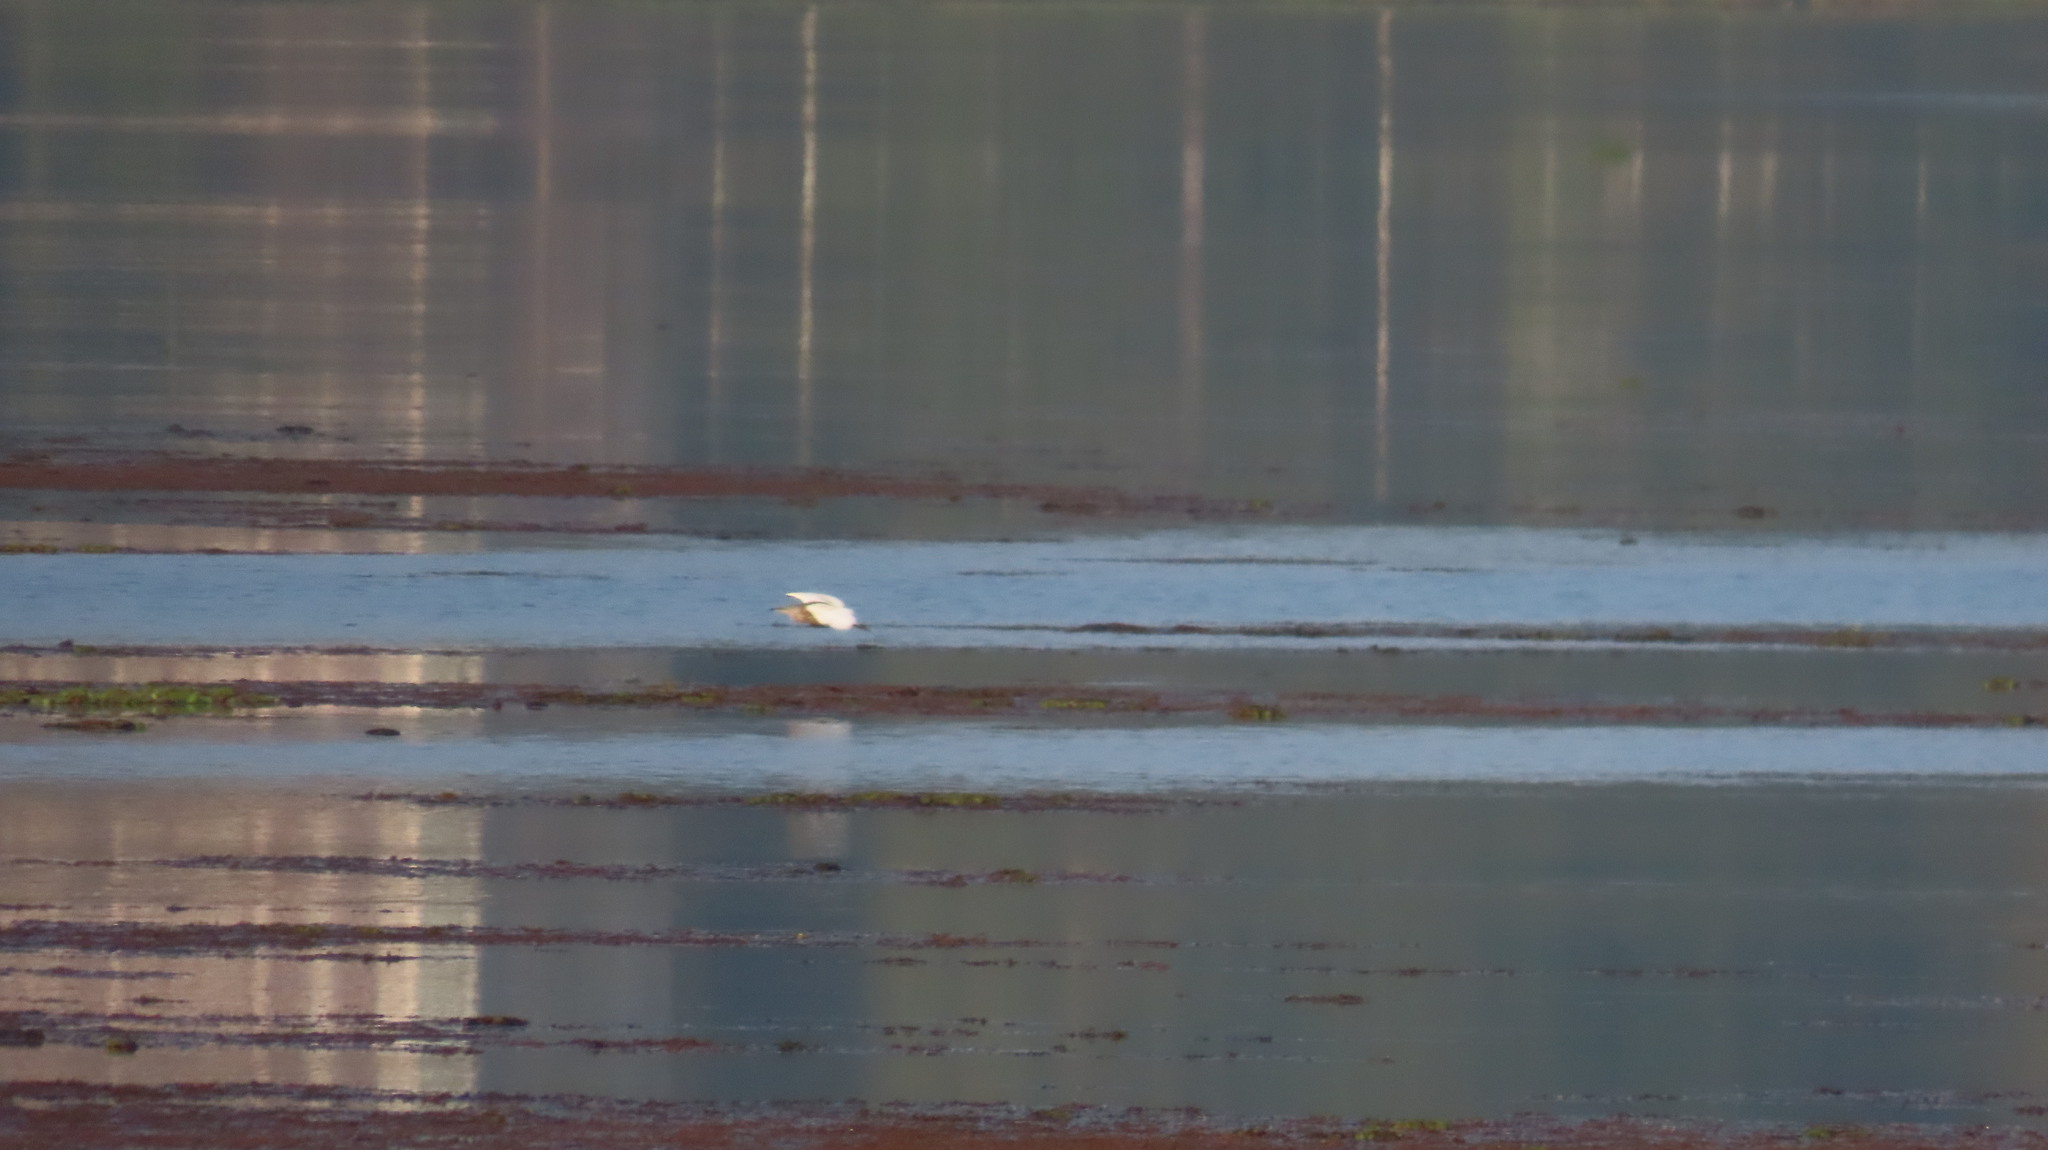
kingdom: Animalia
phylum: Chordata
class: Aves
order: Pelecaniformes
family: Ardeidae
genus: Ardeola
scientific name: Ardeola grayii
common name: Indian pond heron
